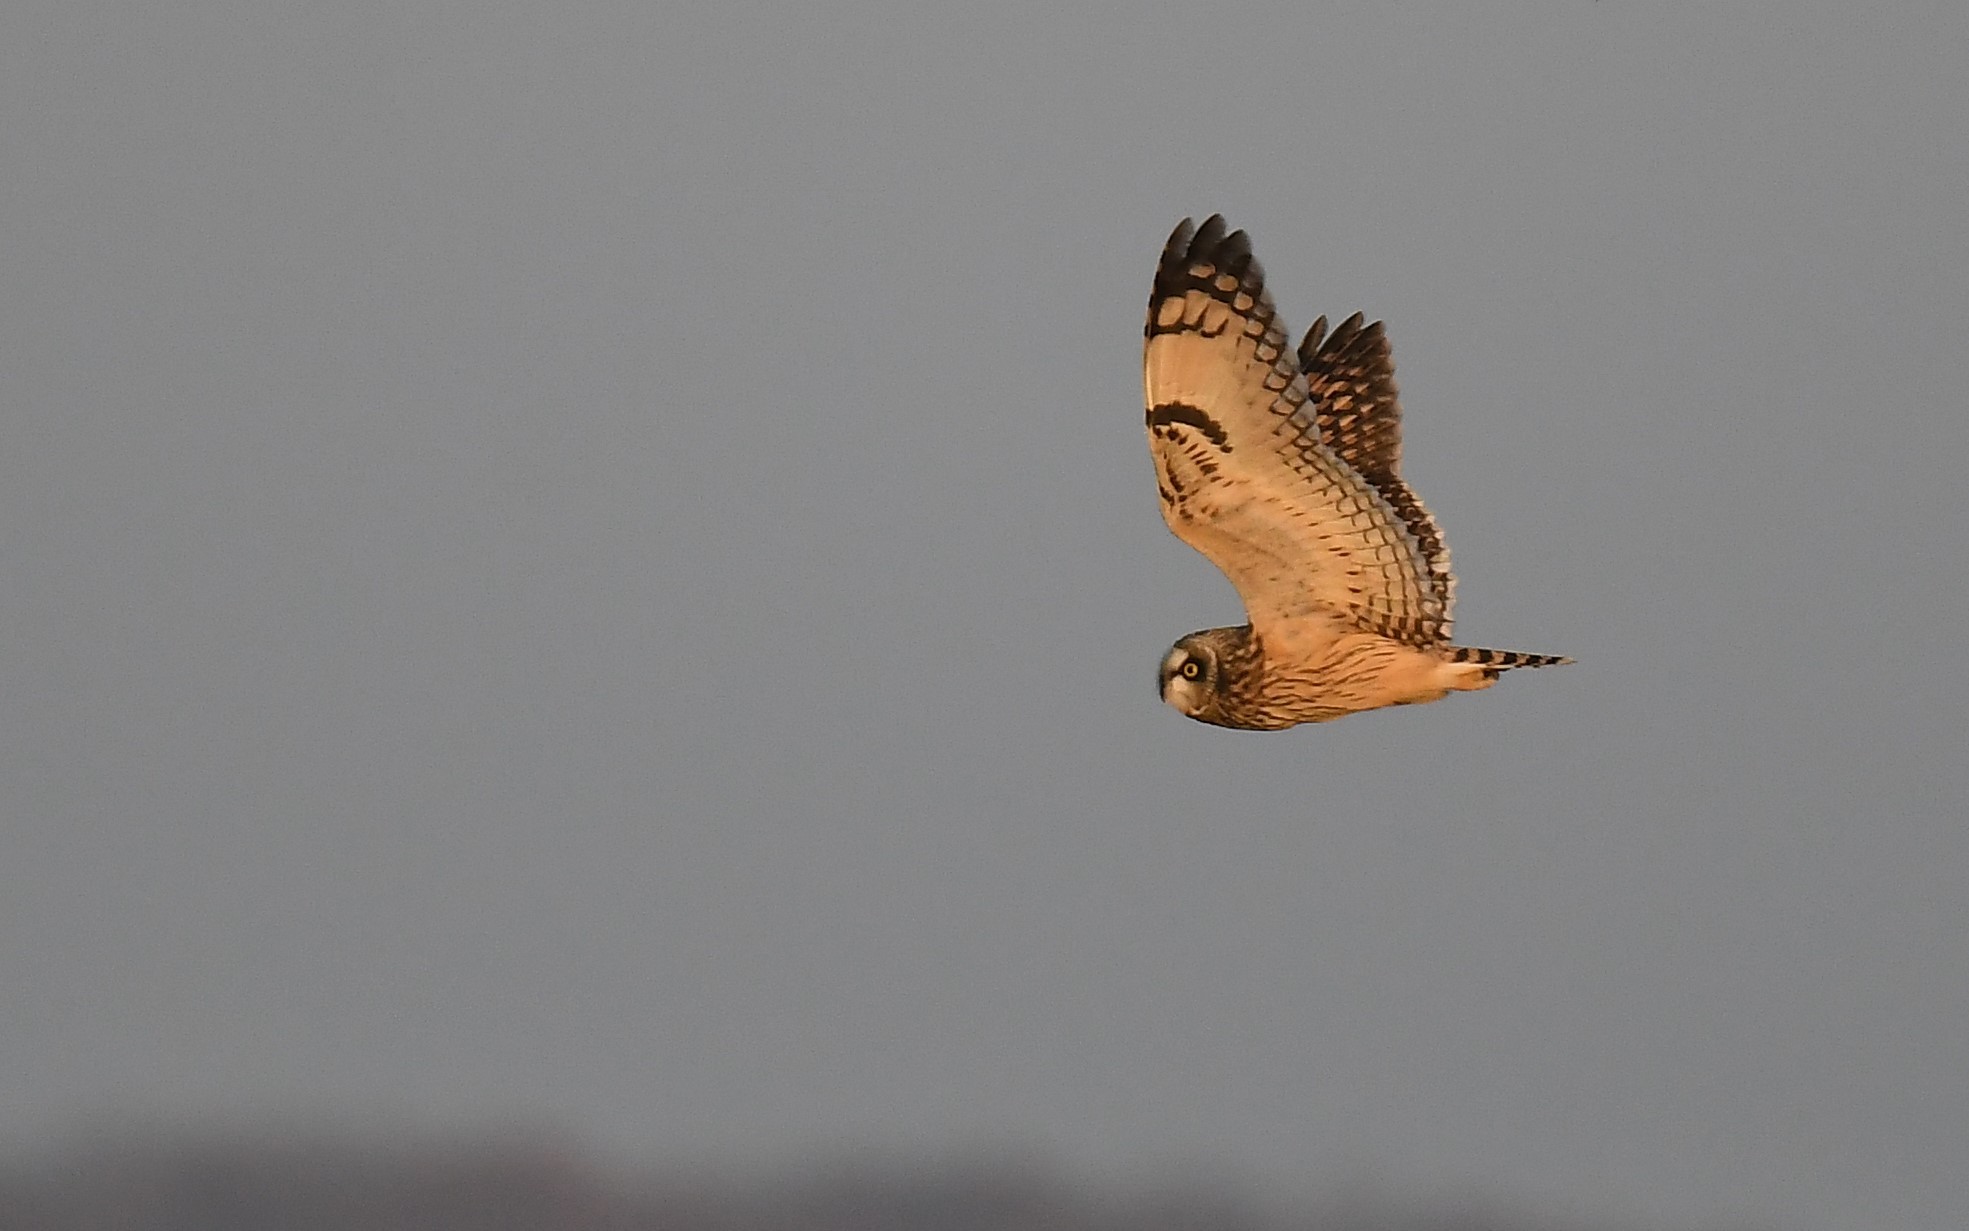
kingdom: Animalia
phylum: Chordata
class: Aves
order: Strigiformes
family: Strigidae
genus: Asio
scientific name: Asio flammeus
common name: Short-eared owl
